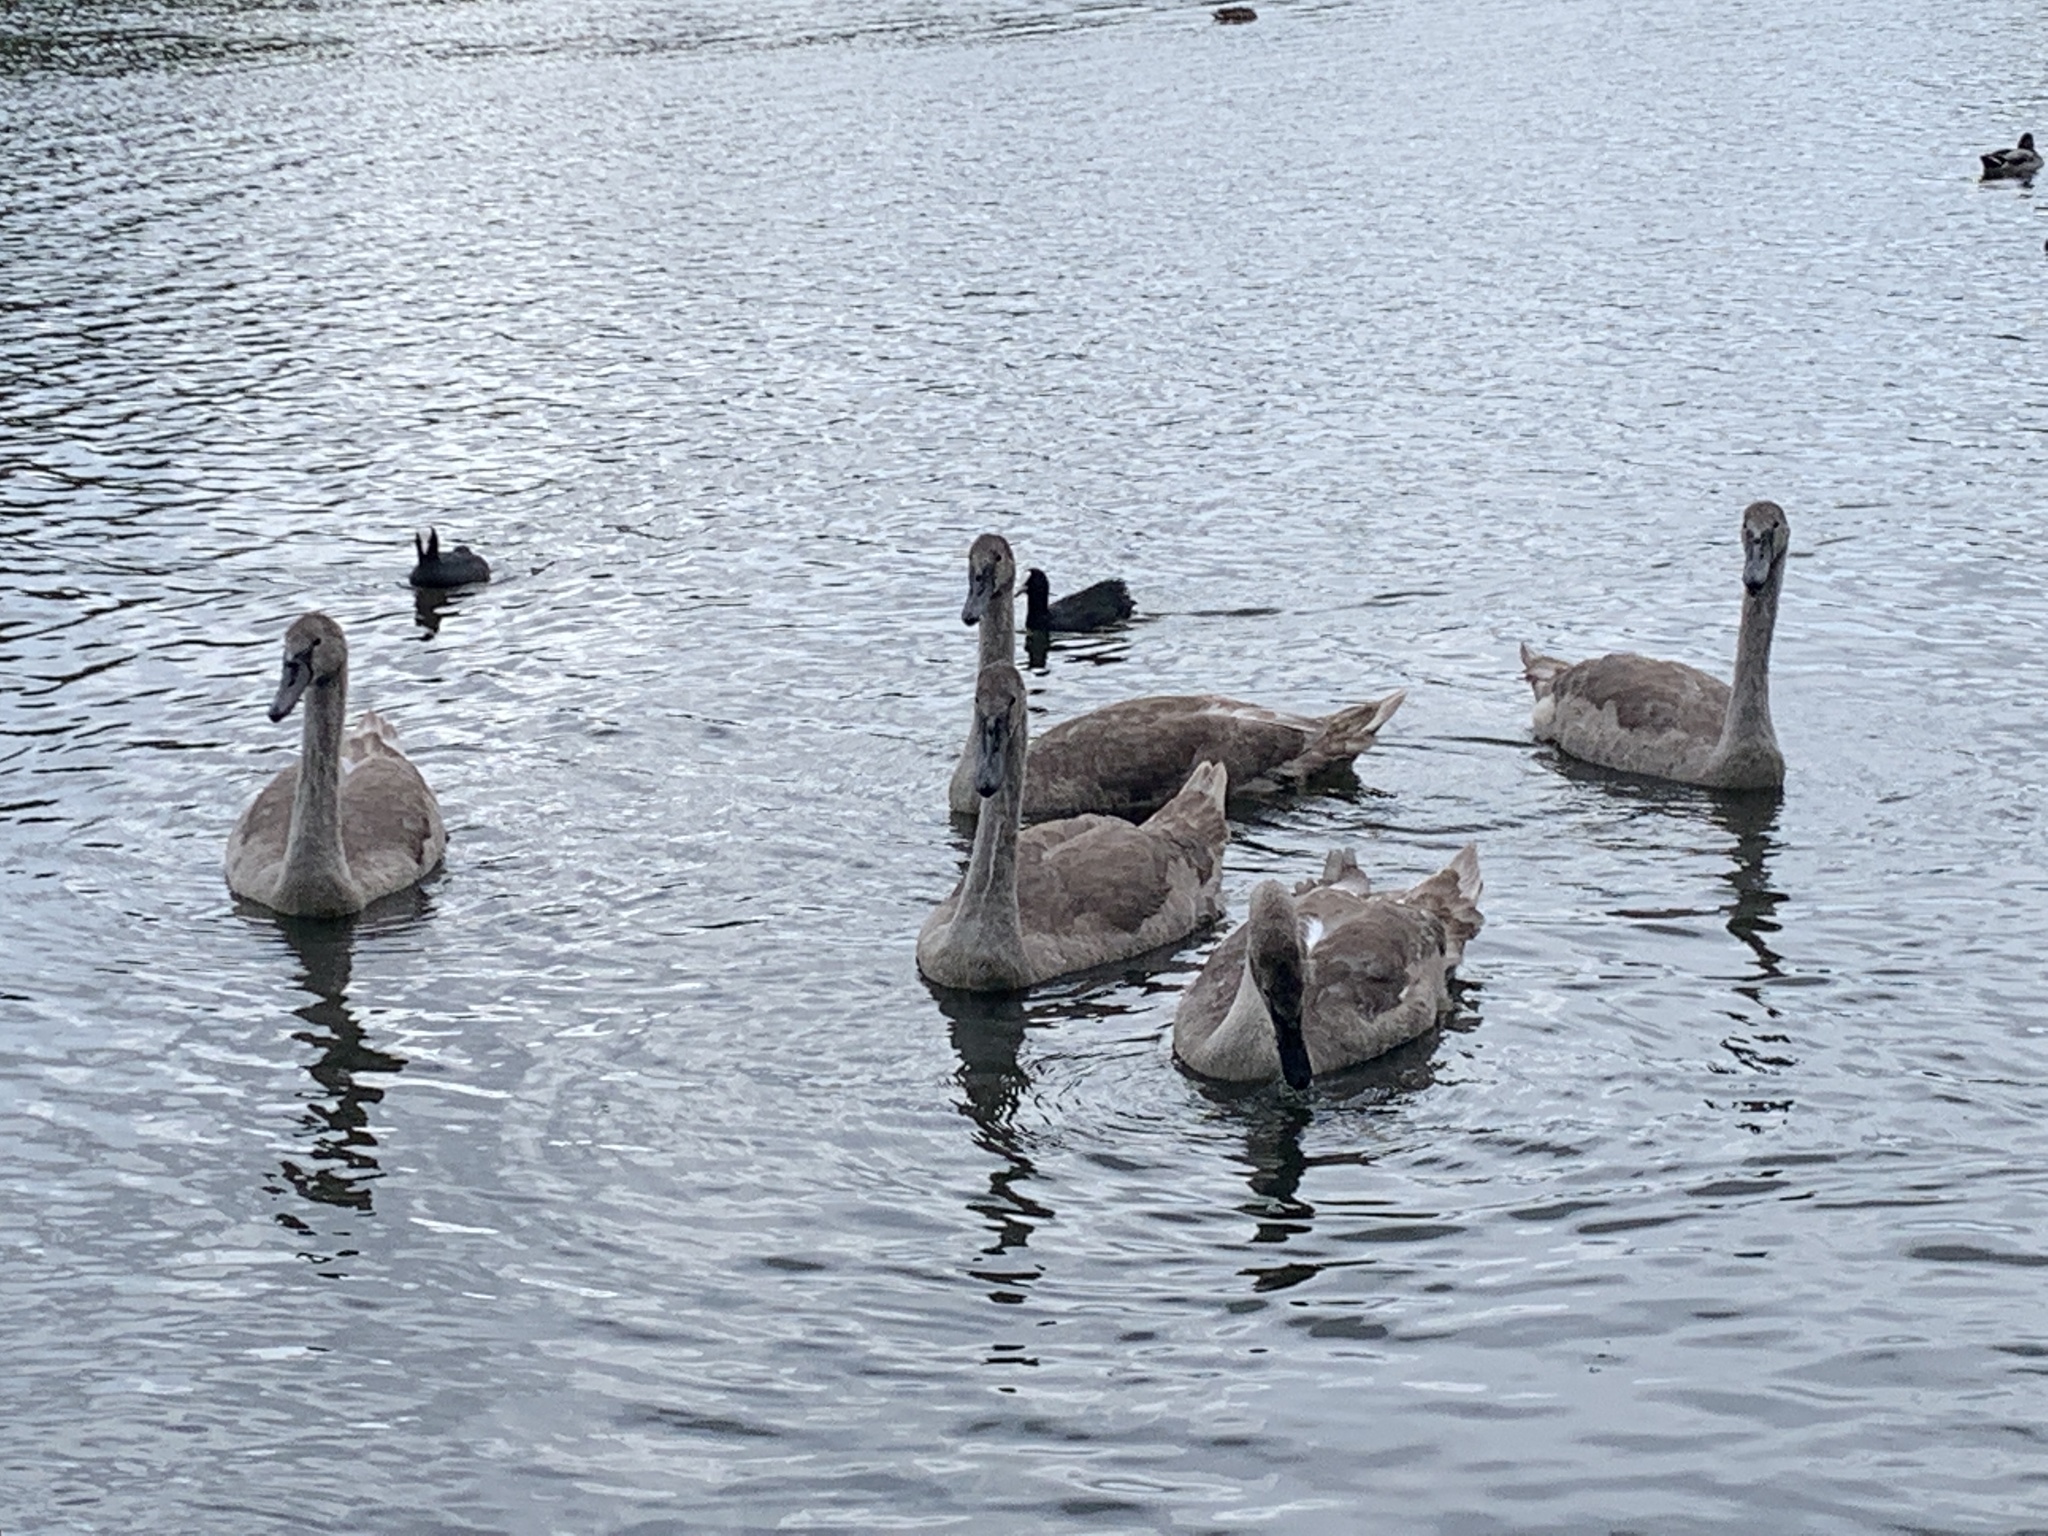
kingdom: Animalia
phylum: Chordata
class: Aves
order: Anseriformes
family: Anatidae
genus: Cygnus
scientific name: Cygnus olor
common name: Mute swan
